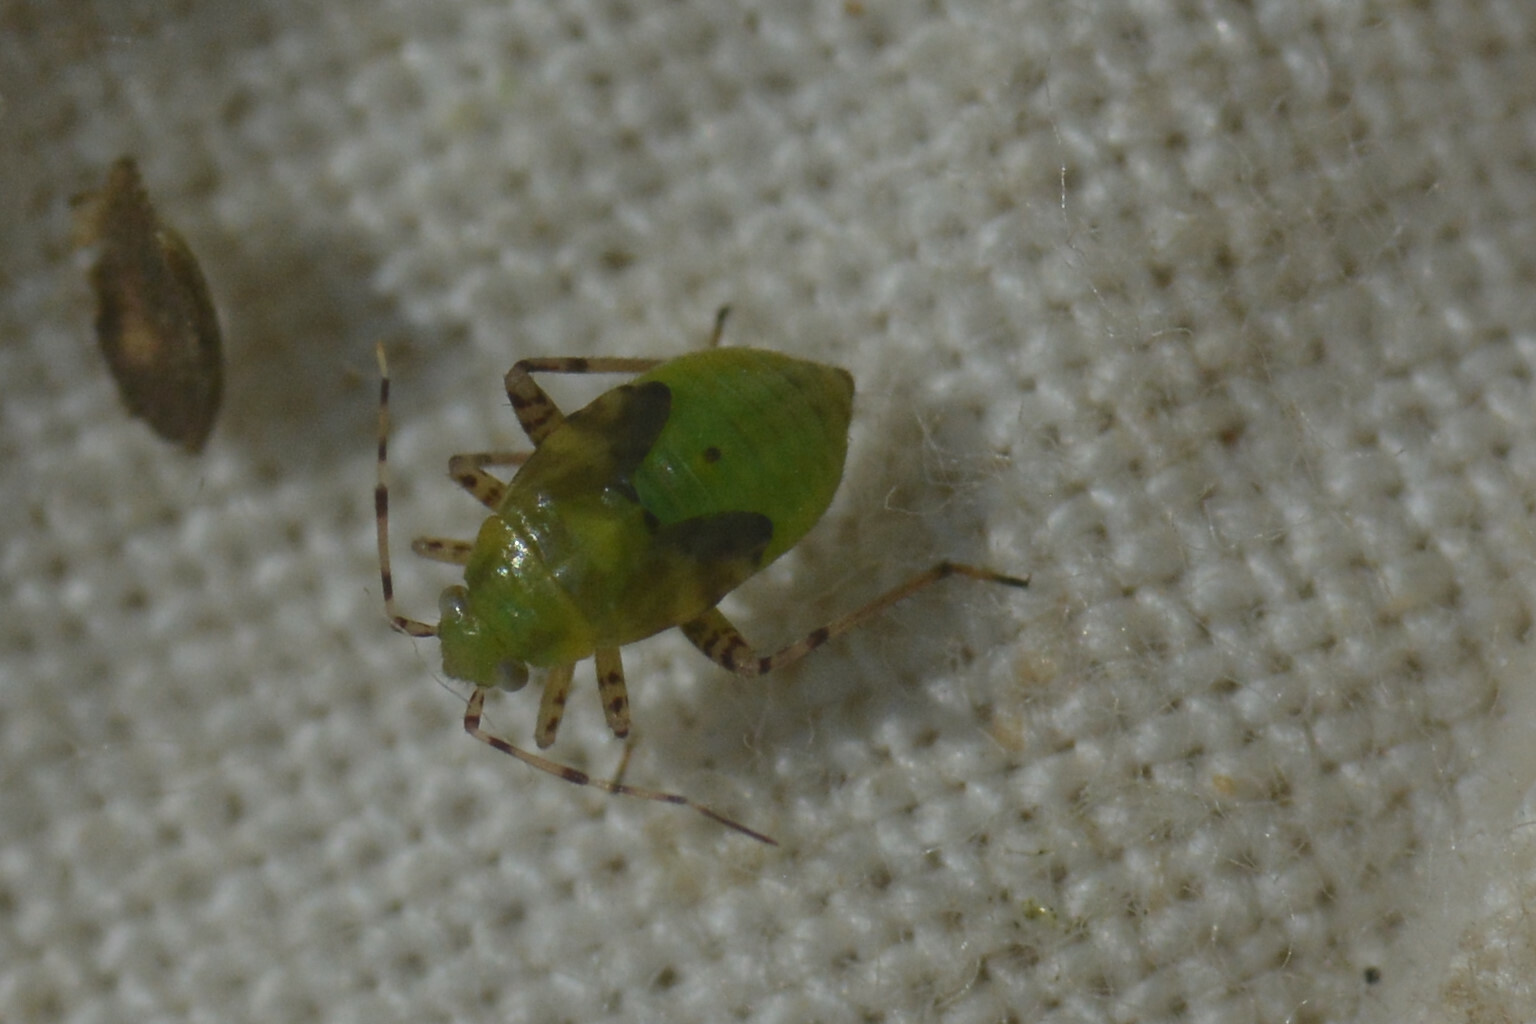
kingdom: Animalia
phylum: Arthropoda
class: Insecta
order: Hemiptera
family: Miridae
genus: Liocoris
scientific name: Liocoris tripustulatus
